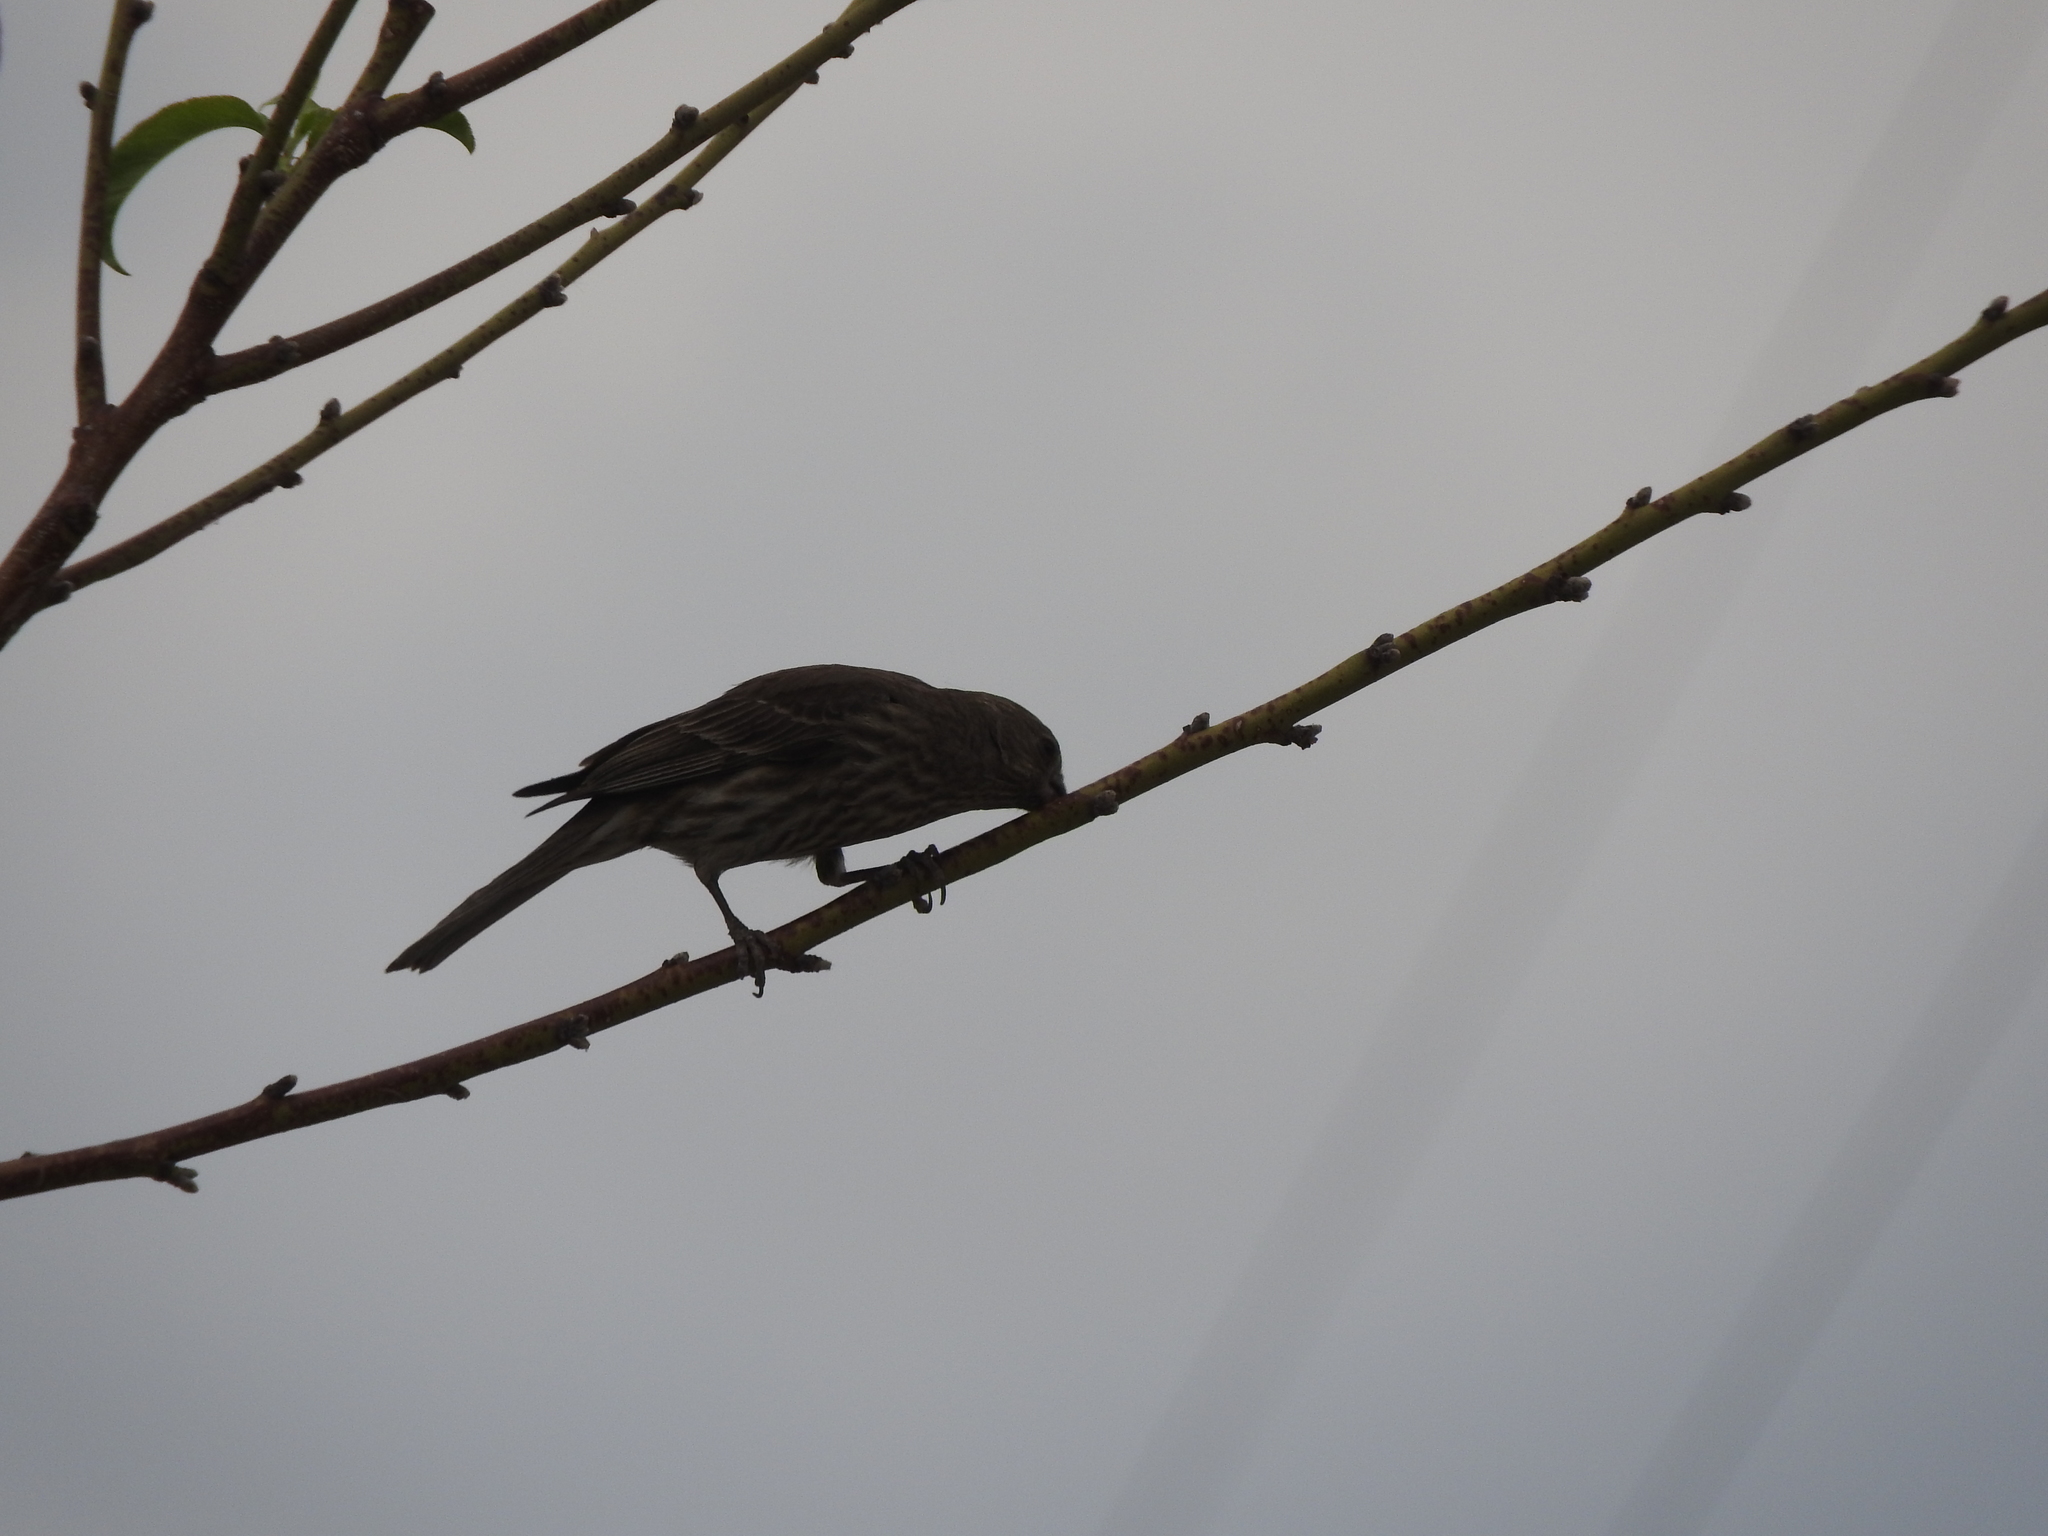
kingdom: Animalia
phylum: Chordata
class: Aves
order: Passeriformes
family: Fringillidae
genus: Haemorhous
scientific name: Haemorhous mexicanus
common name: House finch
